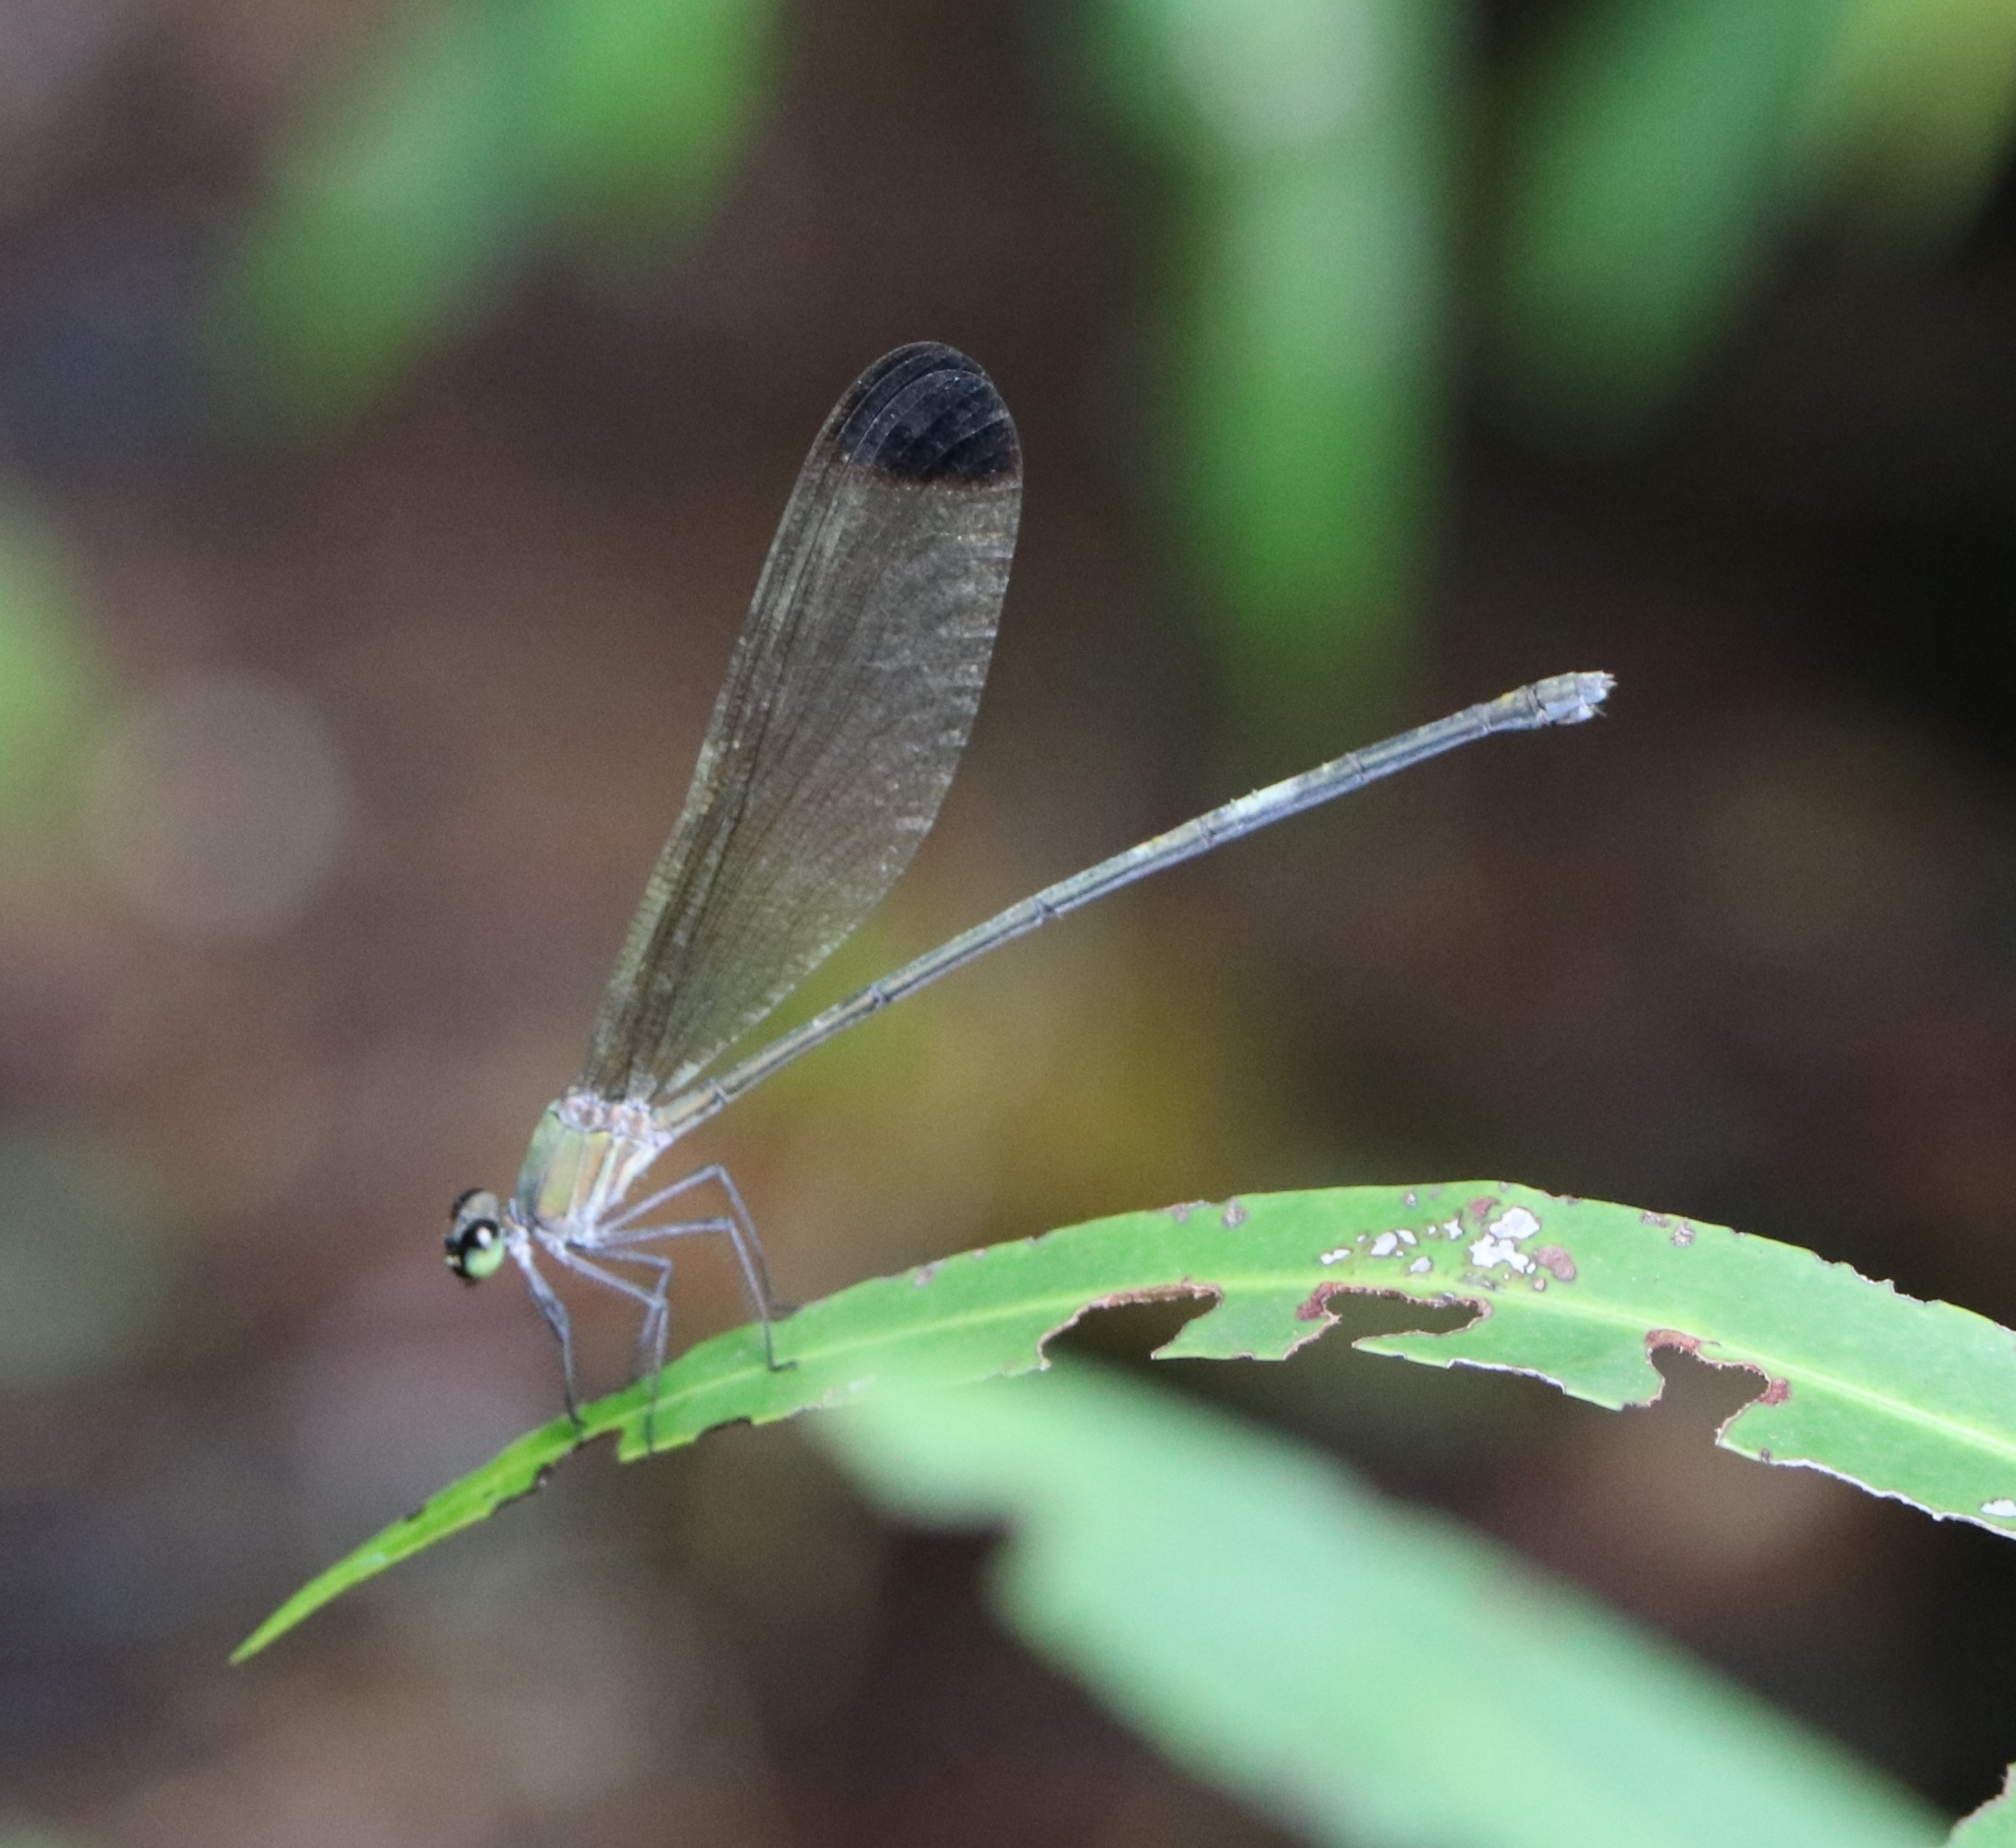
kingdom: Animalia
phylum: Arthropoda
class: Insecta
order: Odonata
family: Calopterygidae
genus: Vestalis
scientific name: Vestalis apicalis
